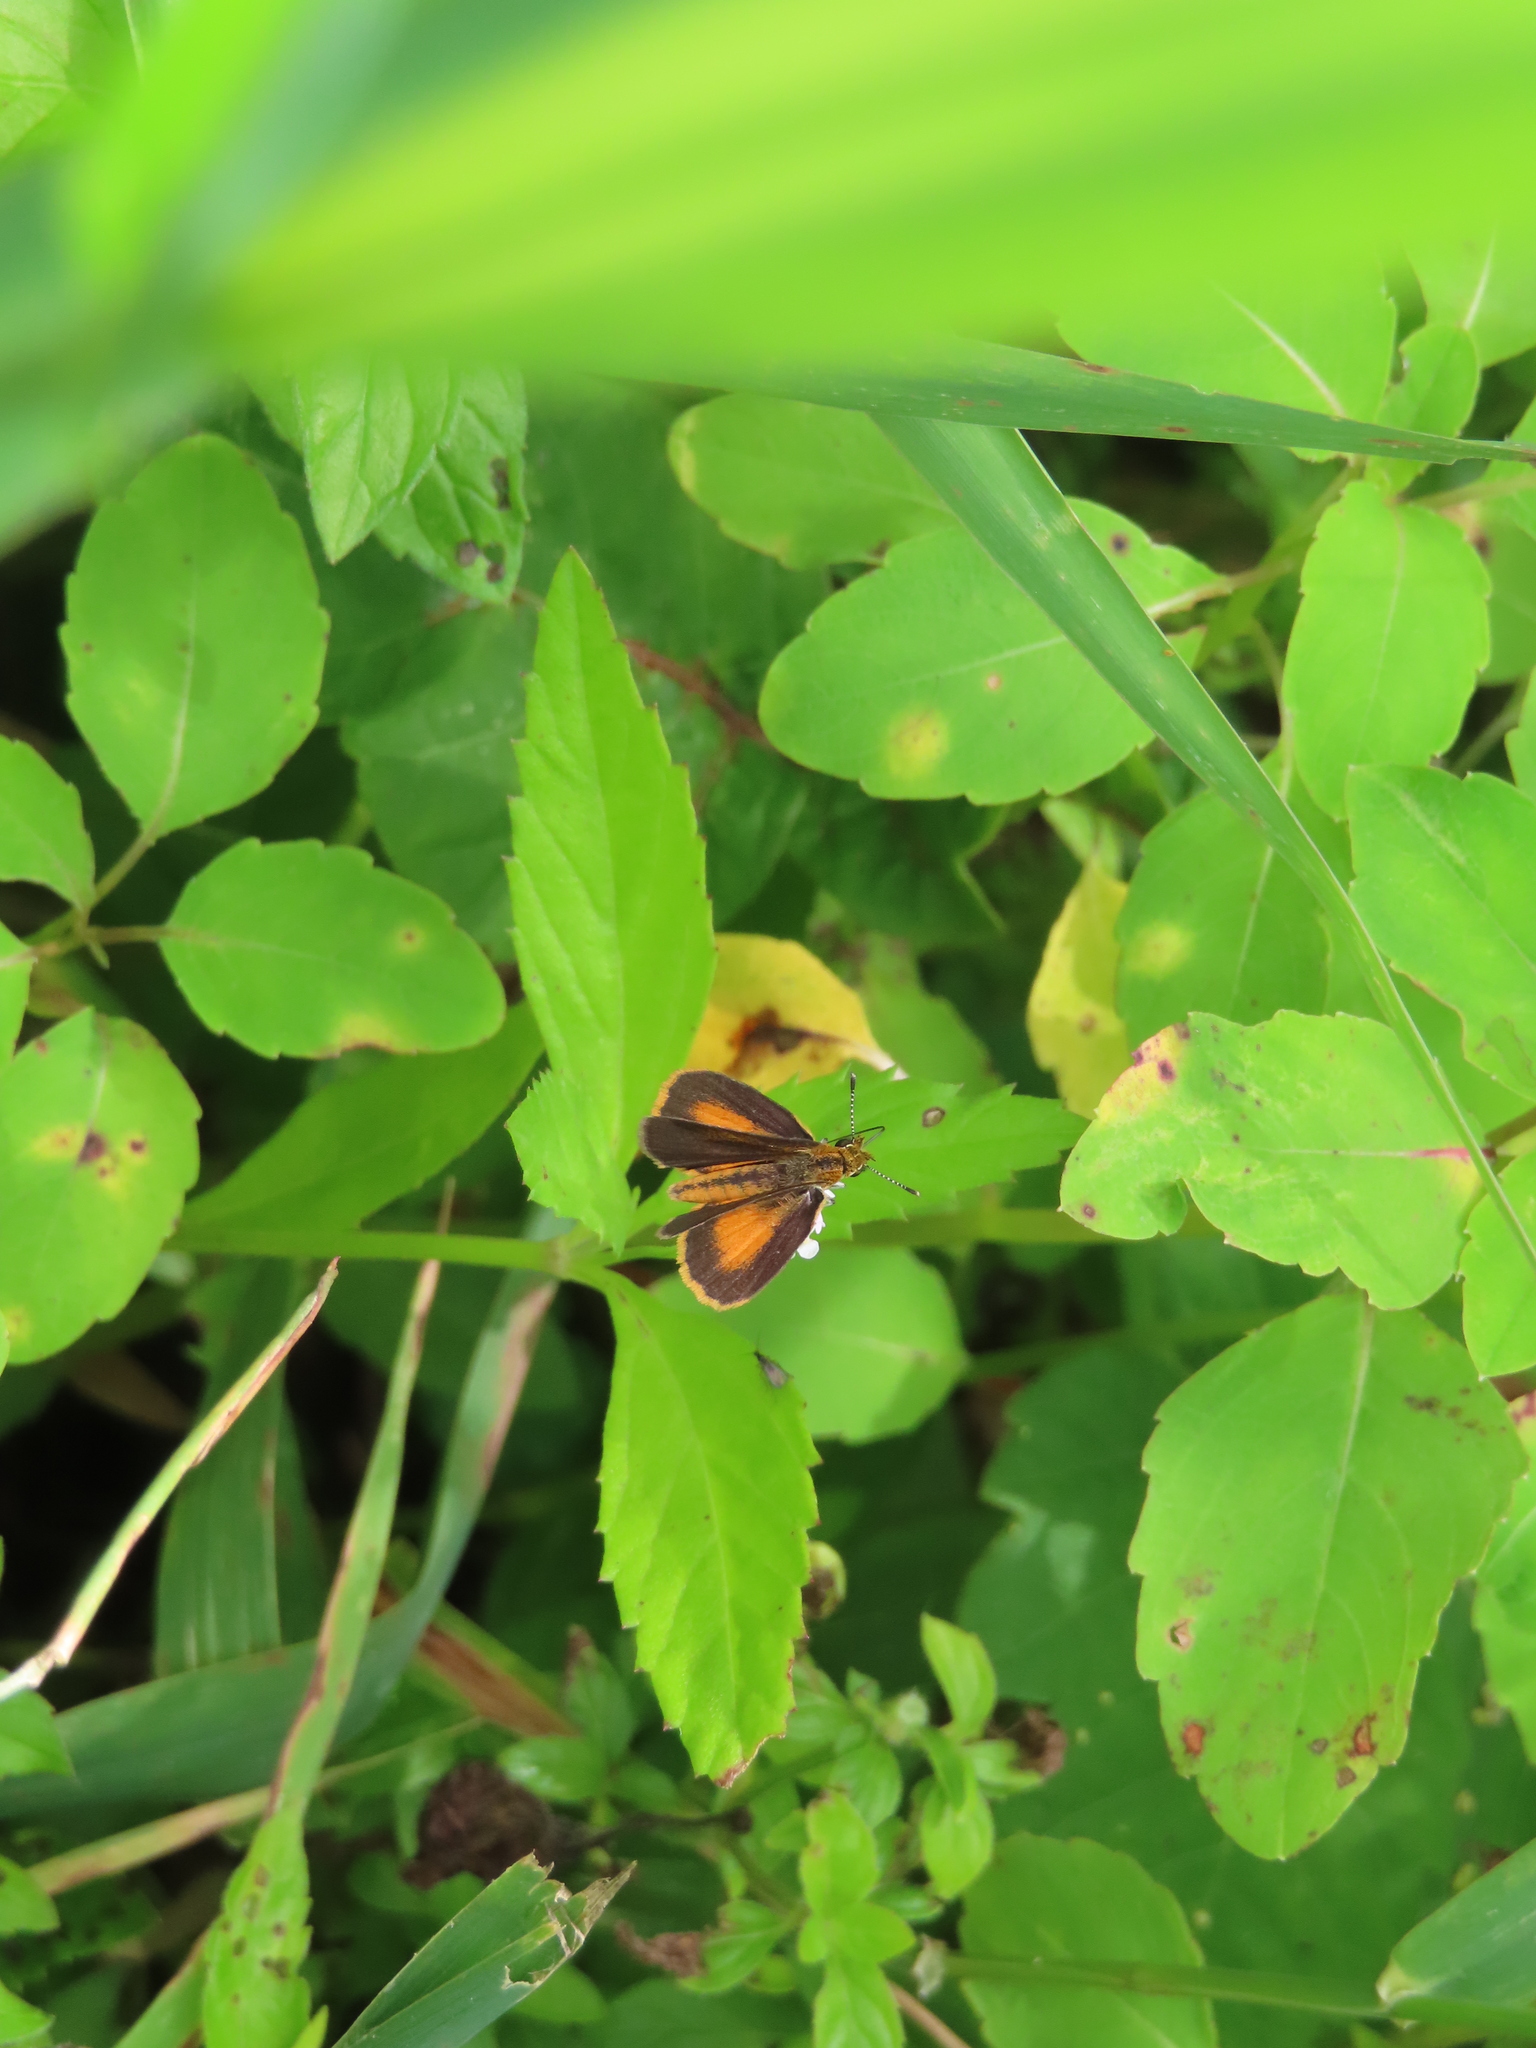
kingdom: Animalia
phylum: Arthropoda
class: Insecta
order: Lepidoptera
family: Hesperiidae
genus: Ancyloxypha
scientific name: Ancyloxypha numitor
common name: Least skipper
